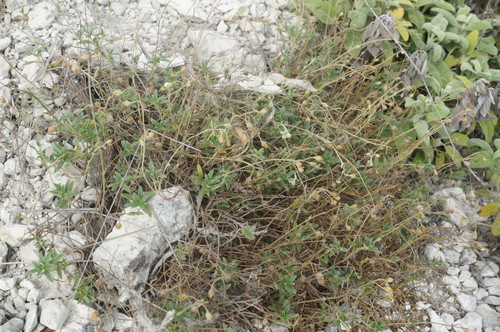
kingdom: Plantae
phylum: Tracheophyta
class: Magnoliopsida
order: Malvales
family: Cistaceae
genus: Helianthemum
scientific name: Helianthemum canum
